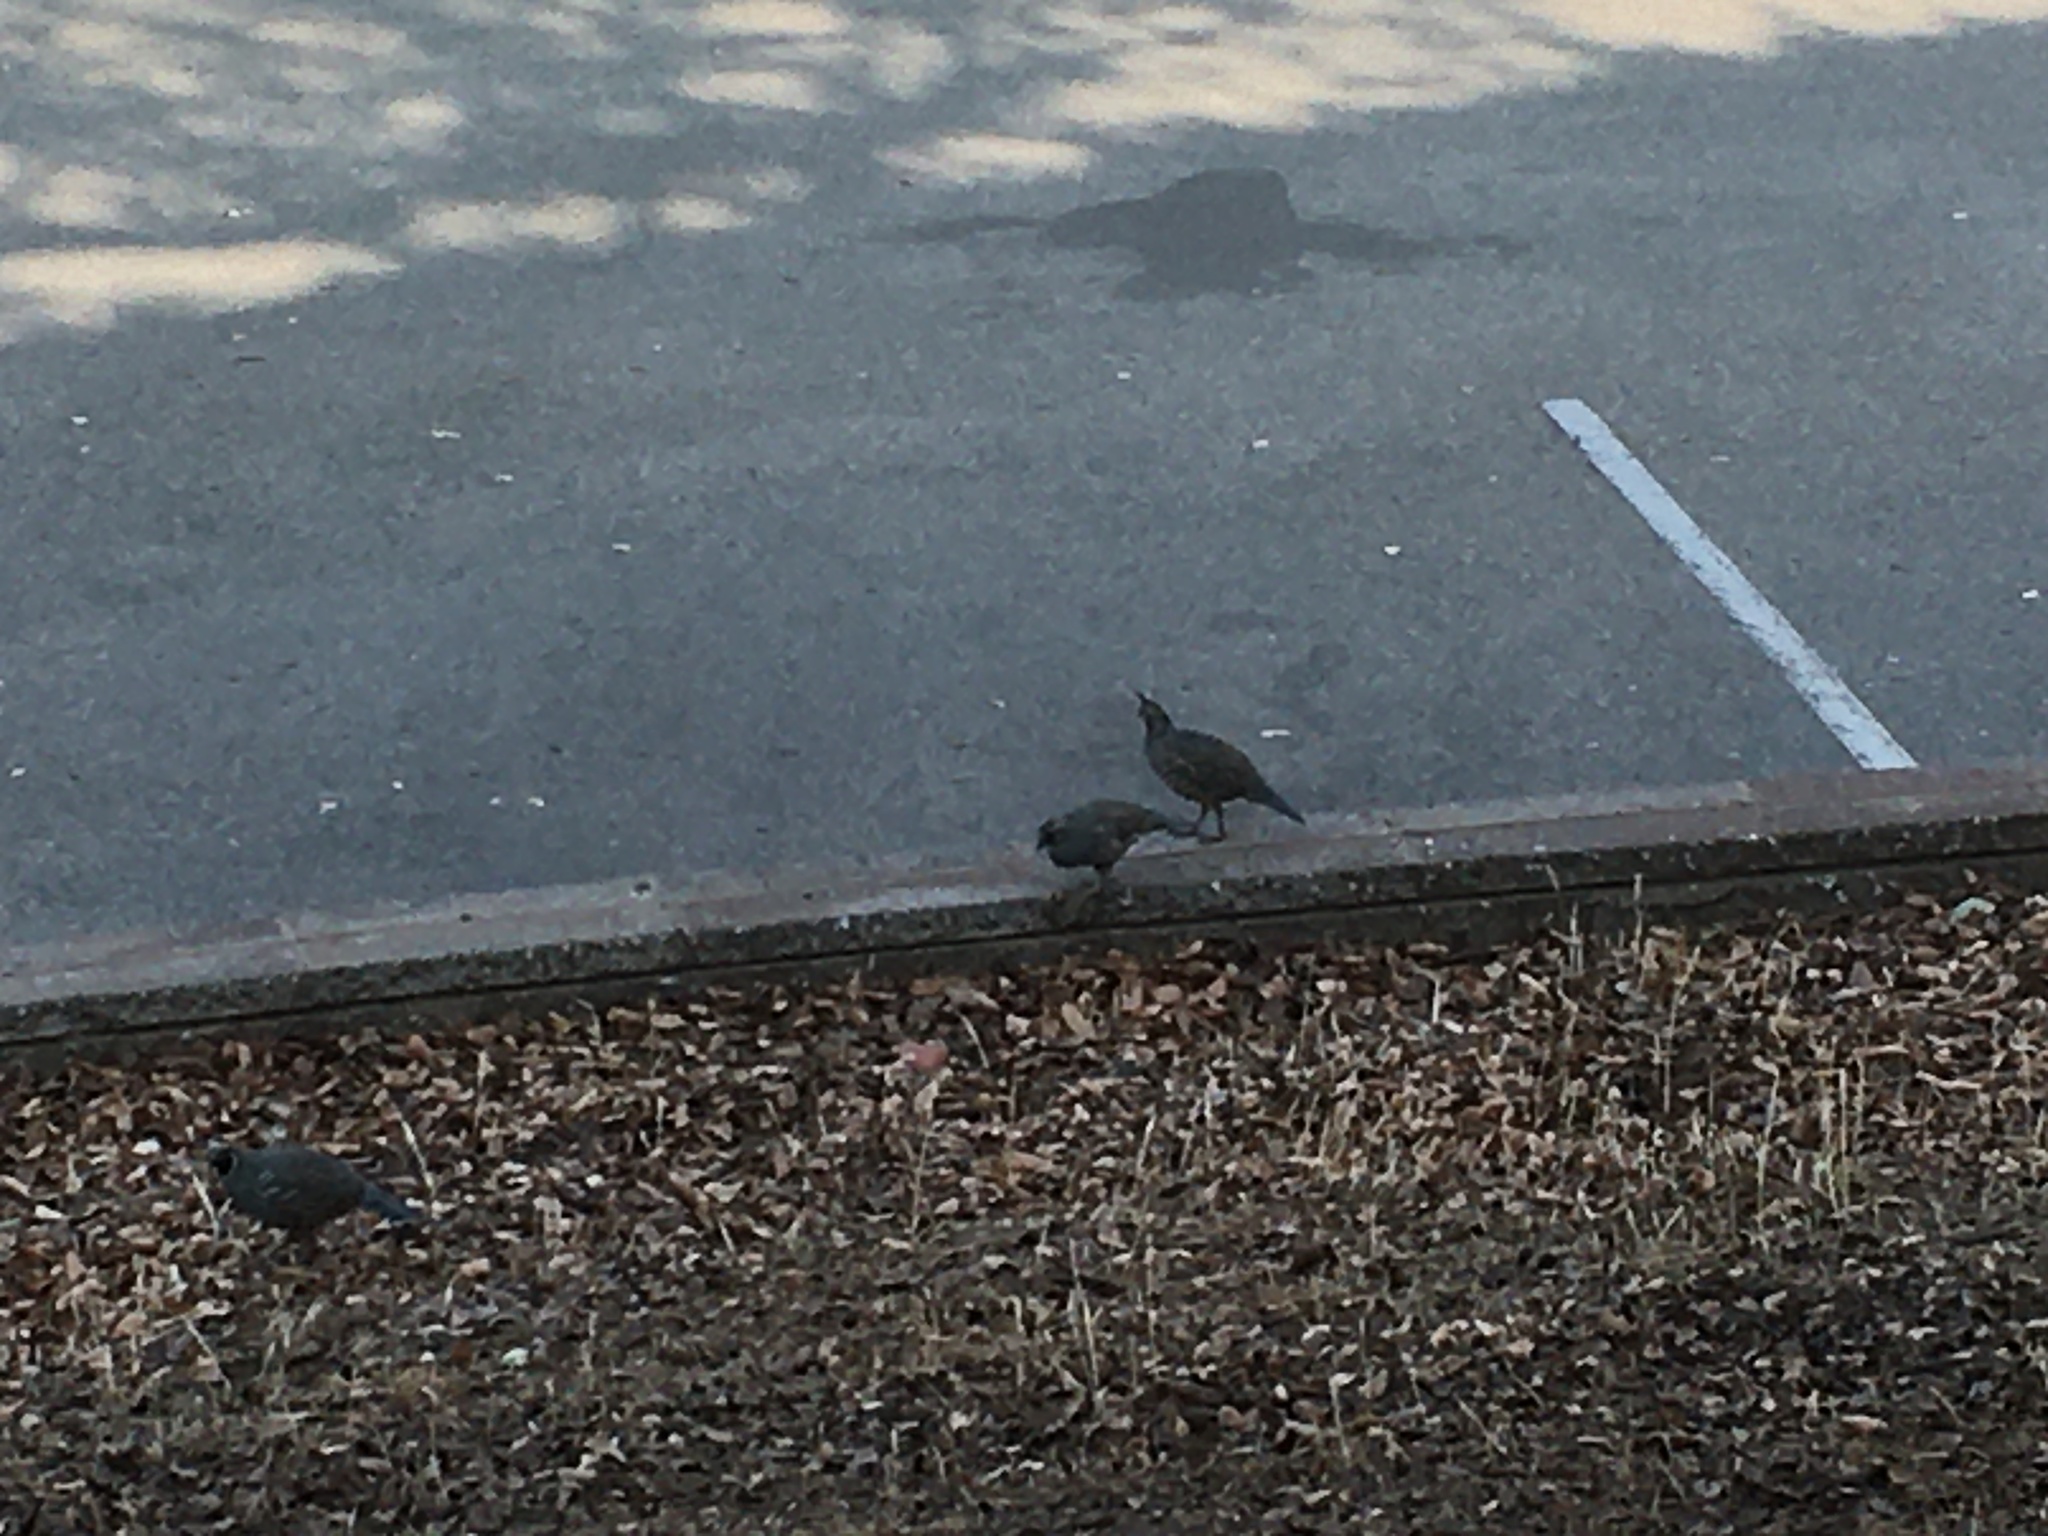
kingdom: Animalia
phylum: Chordata
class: Aves
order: Galliformes
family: Odontophoridae
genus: Callipepla
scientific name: Callipepla californica
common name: California quail
